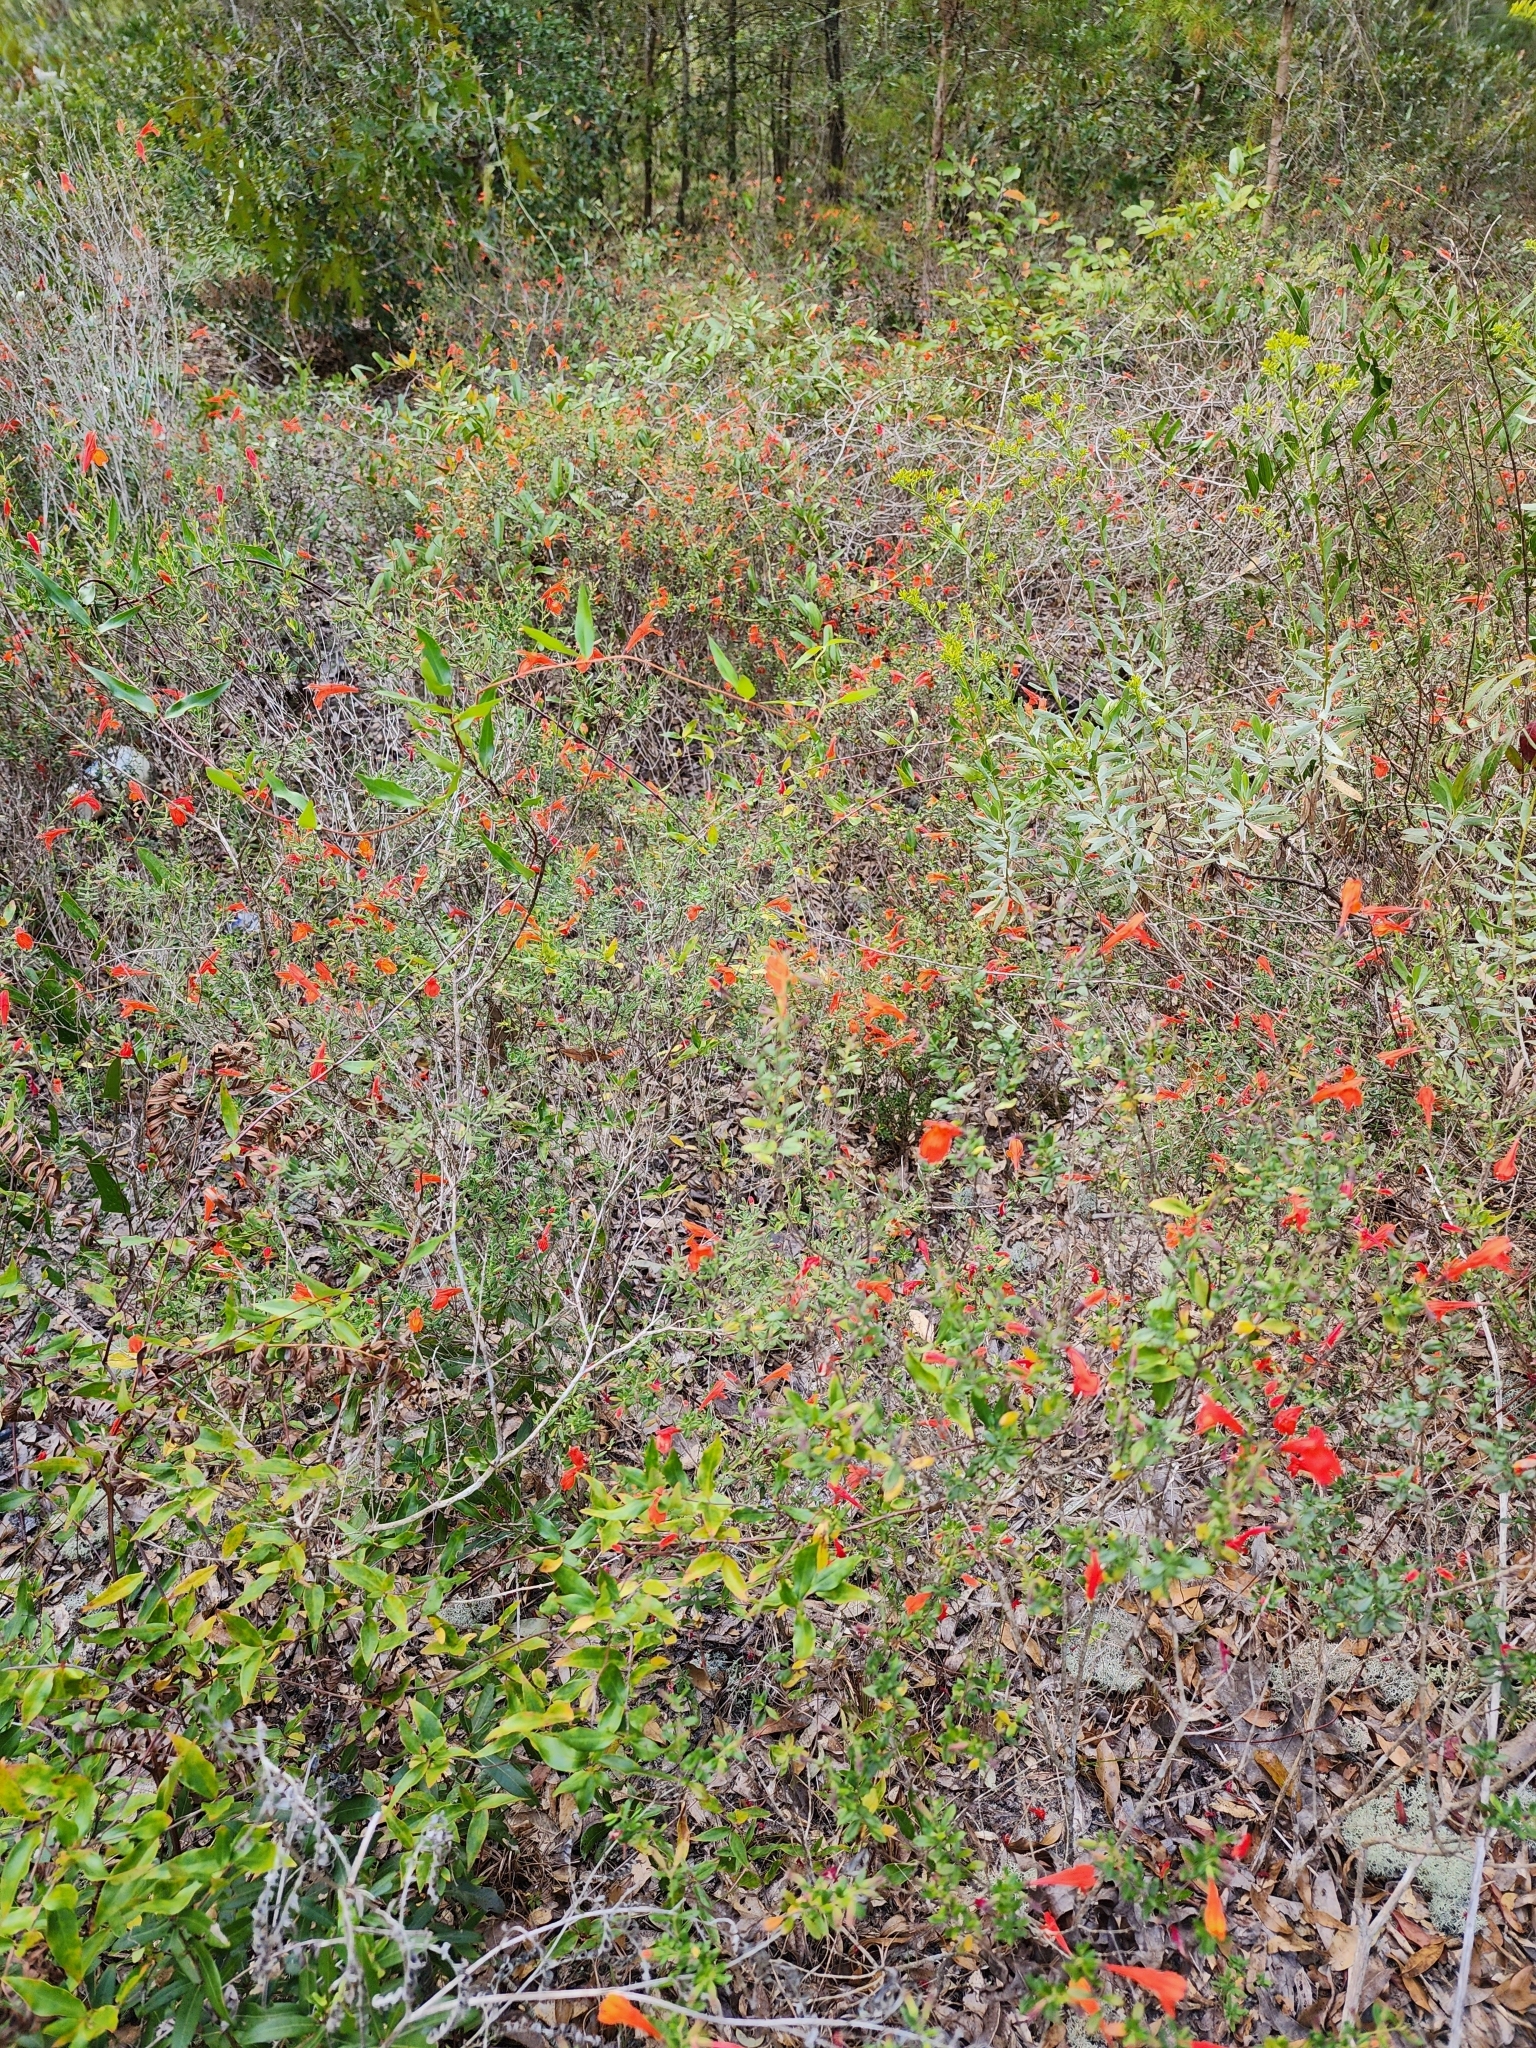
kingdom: Plantae
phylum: Tracheophyta
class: Magnoliopsida
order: Lamiales
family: Lamiaceae
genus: Clinopodium
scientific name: Clinopodium coccineum
